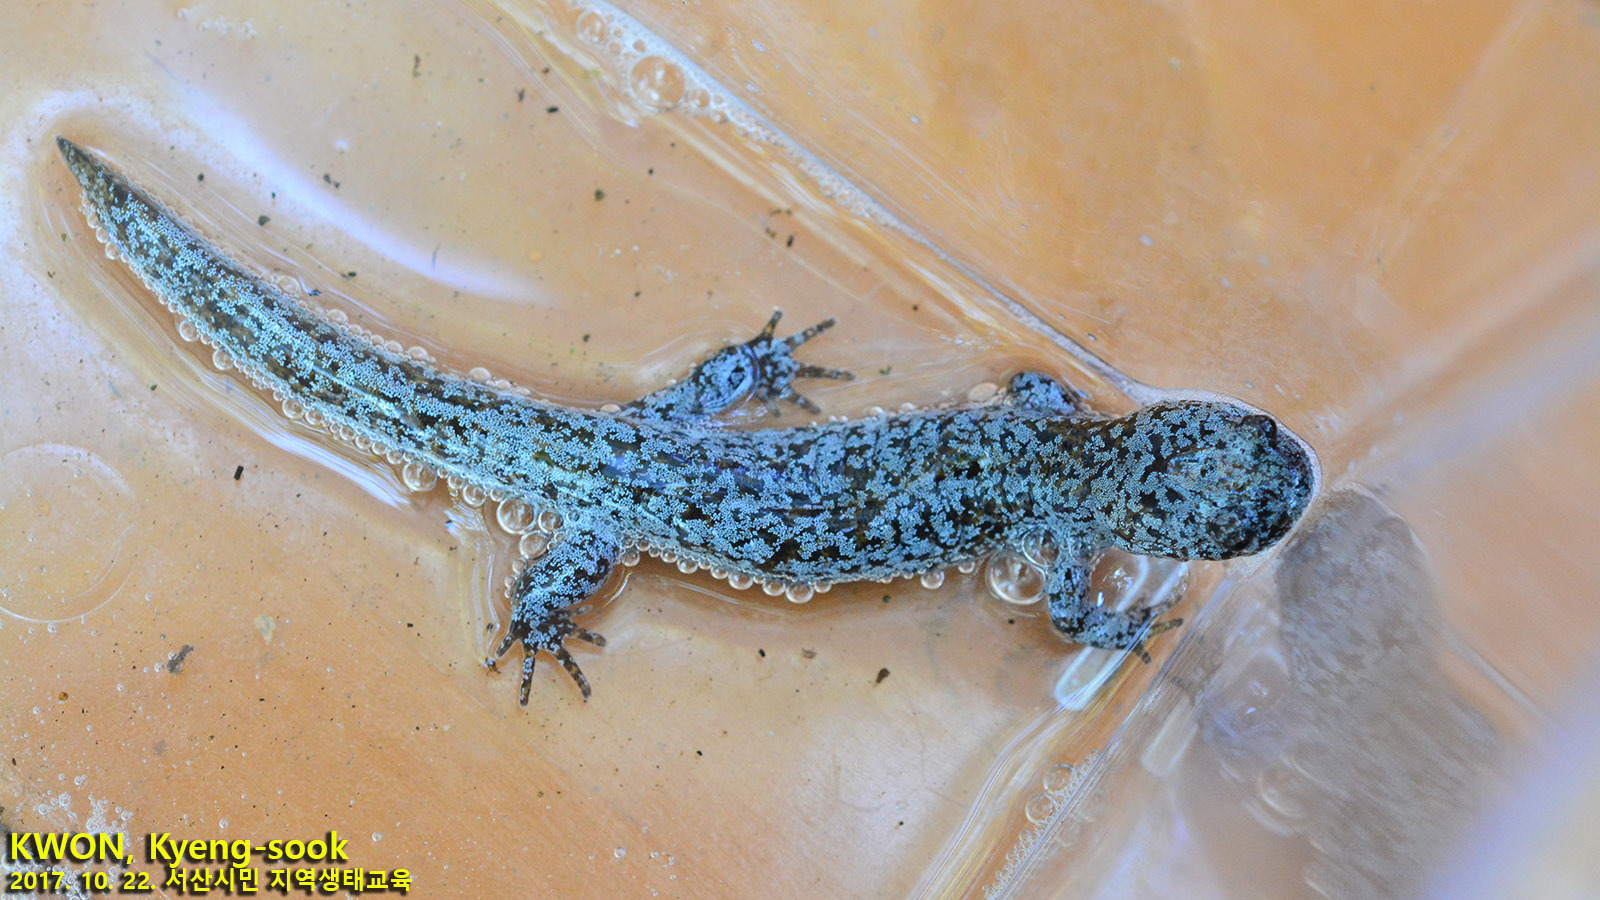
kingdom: Animalia
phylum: Chordata
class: Amphibia
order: Caudata
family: Hynobiidae
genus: Hynobius
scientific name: Hynobius leechii
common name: Gensan salamander
